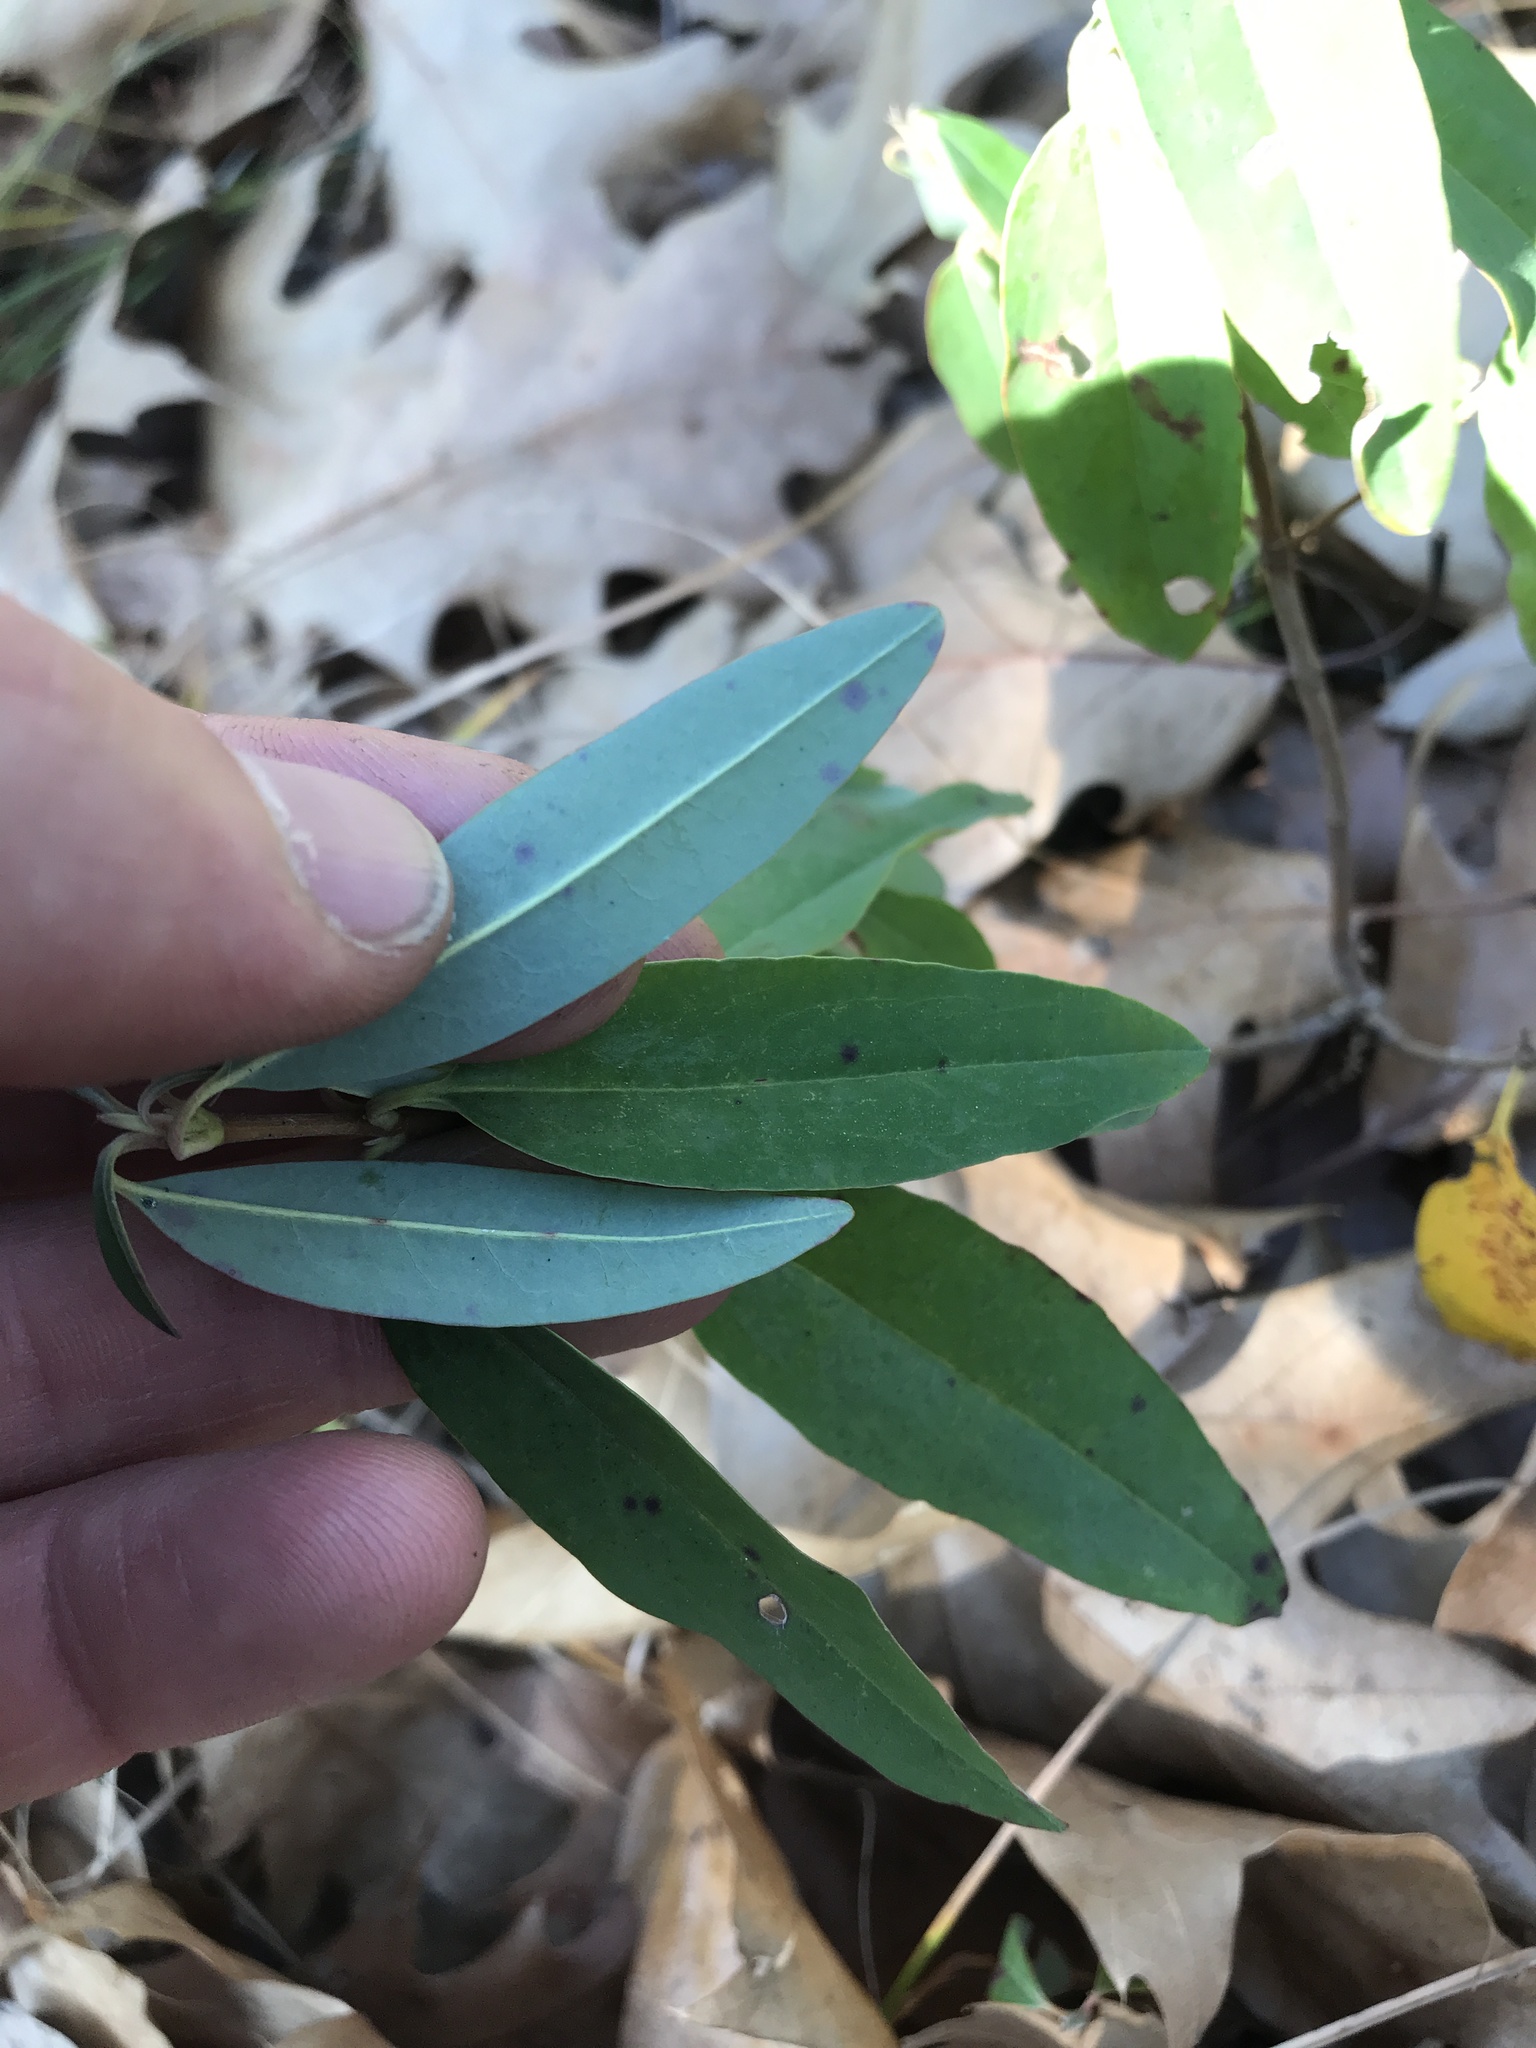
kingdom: Plantae
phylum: Tracheophyta
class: Magnoliopsida
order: Ericales
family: Ericaceae
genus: Kalmia
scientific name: Kalmia angustifolia
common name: Sheep-laurel
